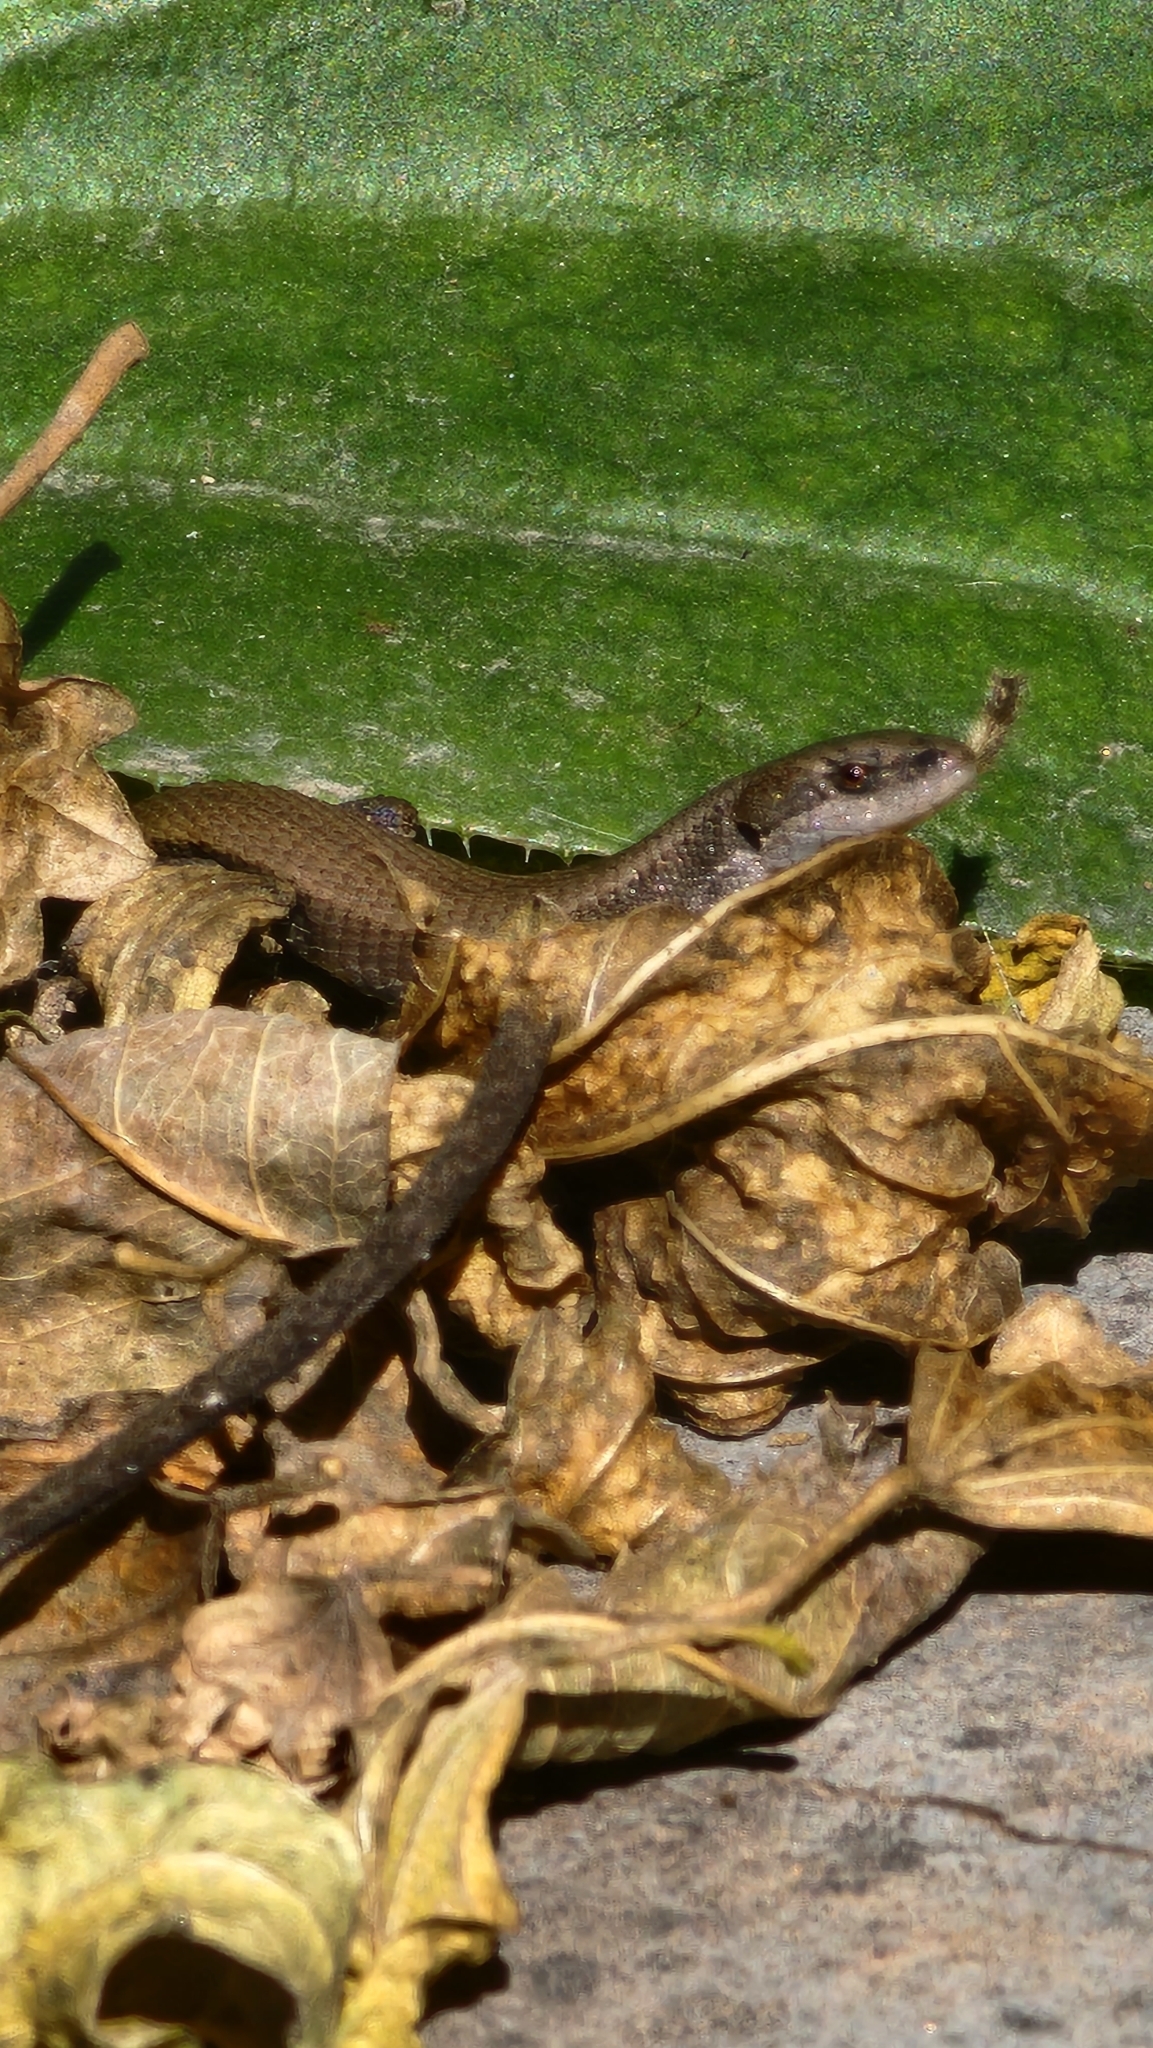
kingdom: Animalia
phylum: Chordata
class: Squamata
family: Gymnophthalmidae
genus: Cercosaura
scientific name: Cercosaura parkeri
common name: Parker's many-fingered teiid
